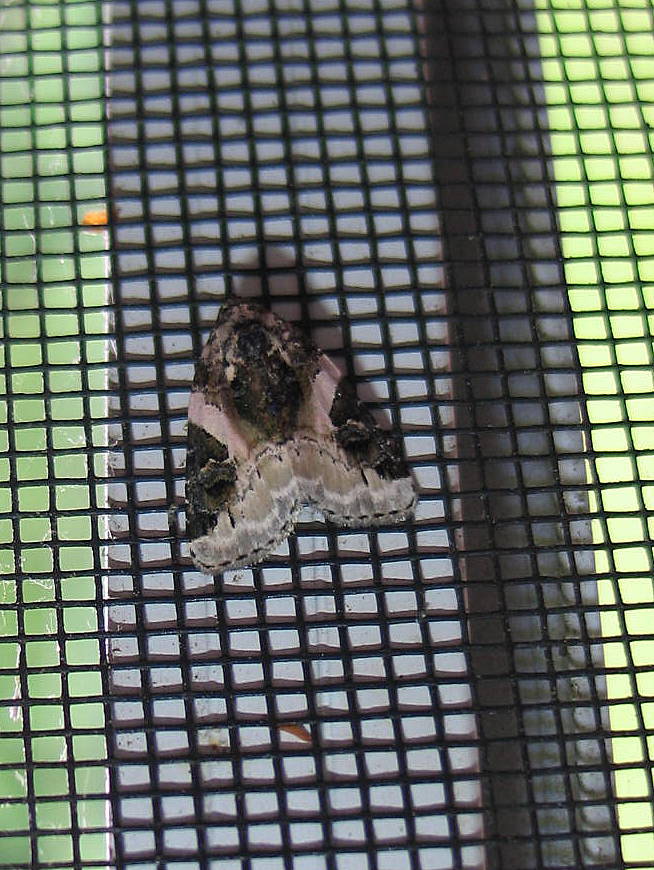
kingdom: Animalia
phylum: Arthropoda
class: Insecta
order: Lepidoptera
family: Noctuidae
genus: Pseudeustrotia
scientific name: Pseudeustrotia carneola
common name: Pink-barred lithacodia moth
